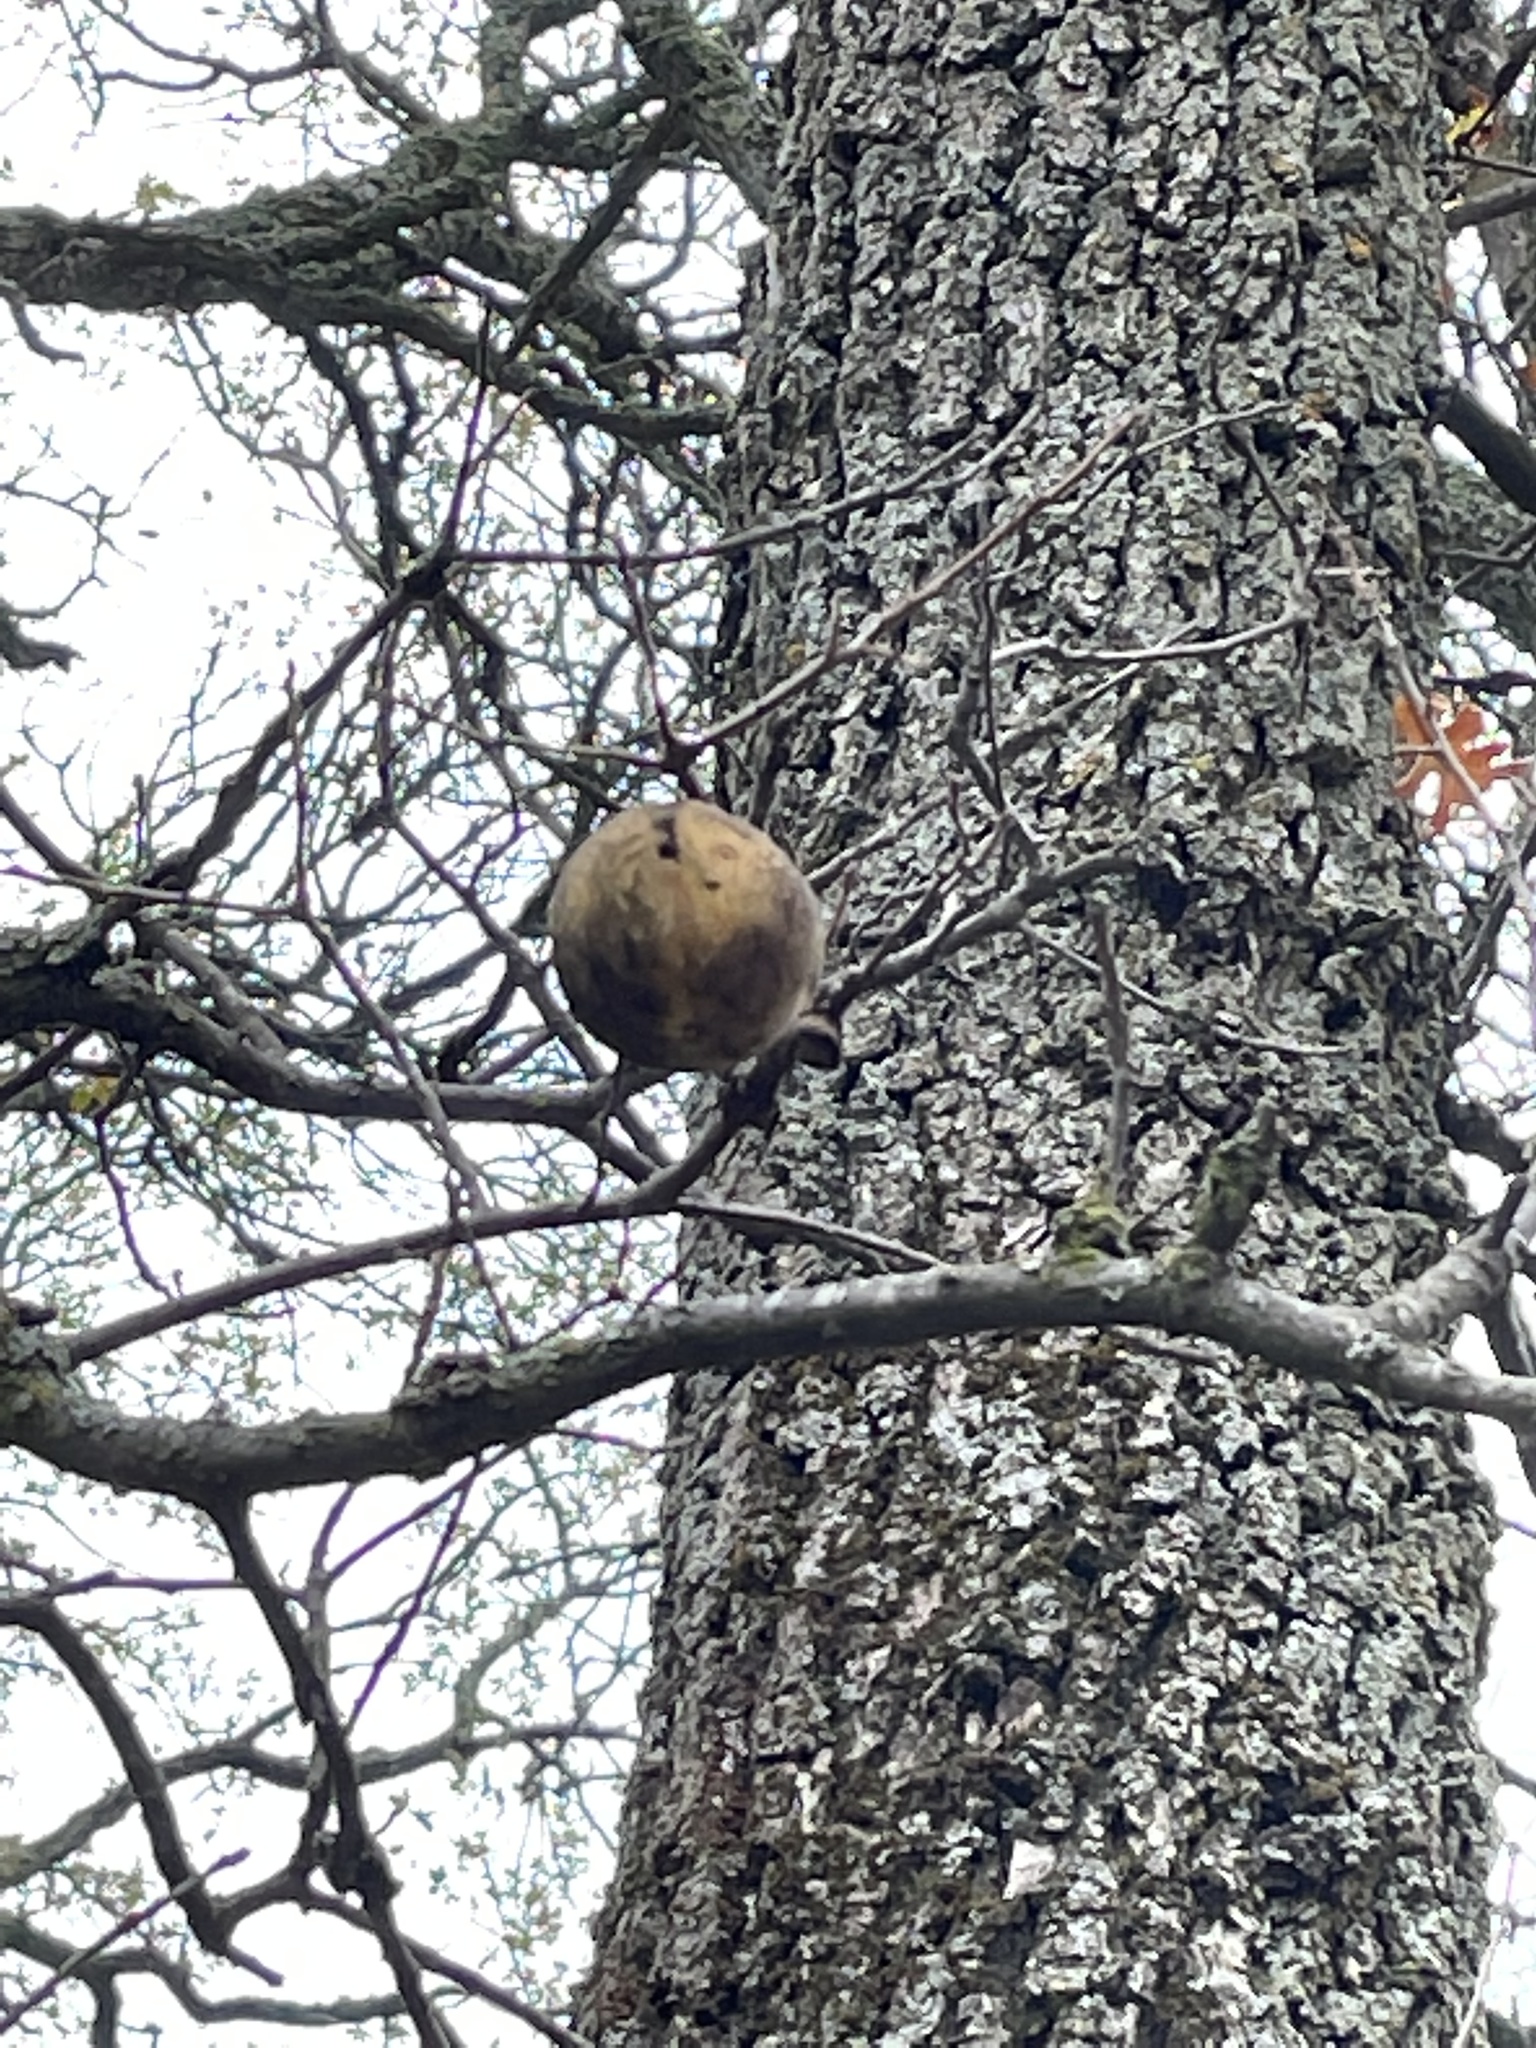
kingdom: Animalia
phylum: Arthropoda
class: Insecta
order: Hymenoptera
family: Cynipidae
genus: Andricus
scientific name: Andricus quercuscalifornicus
